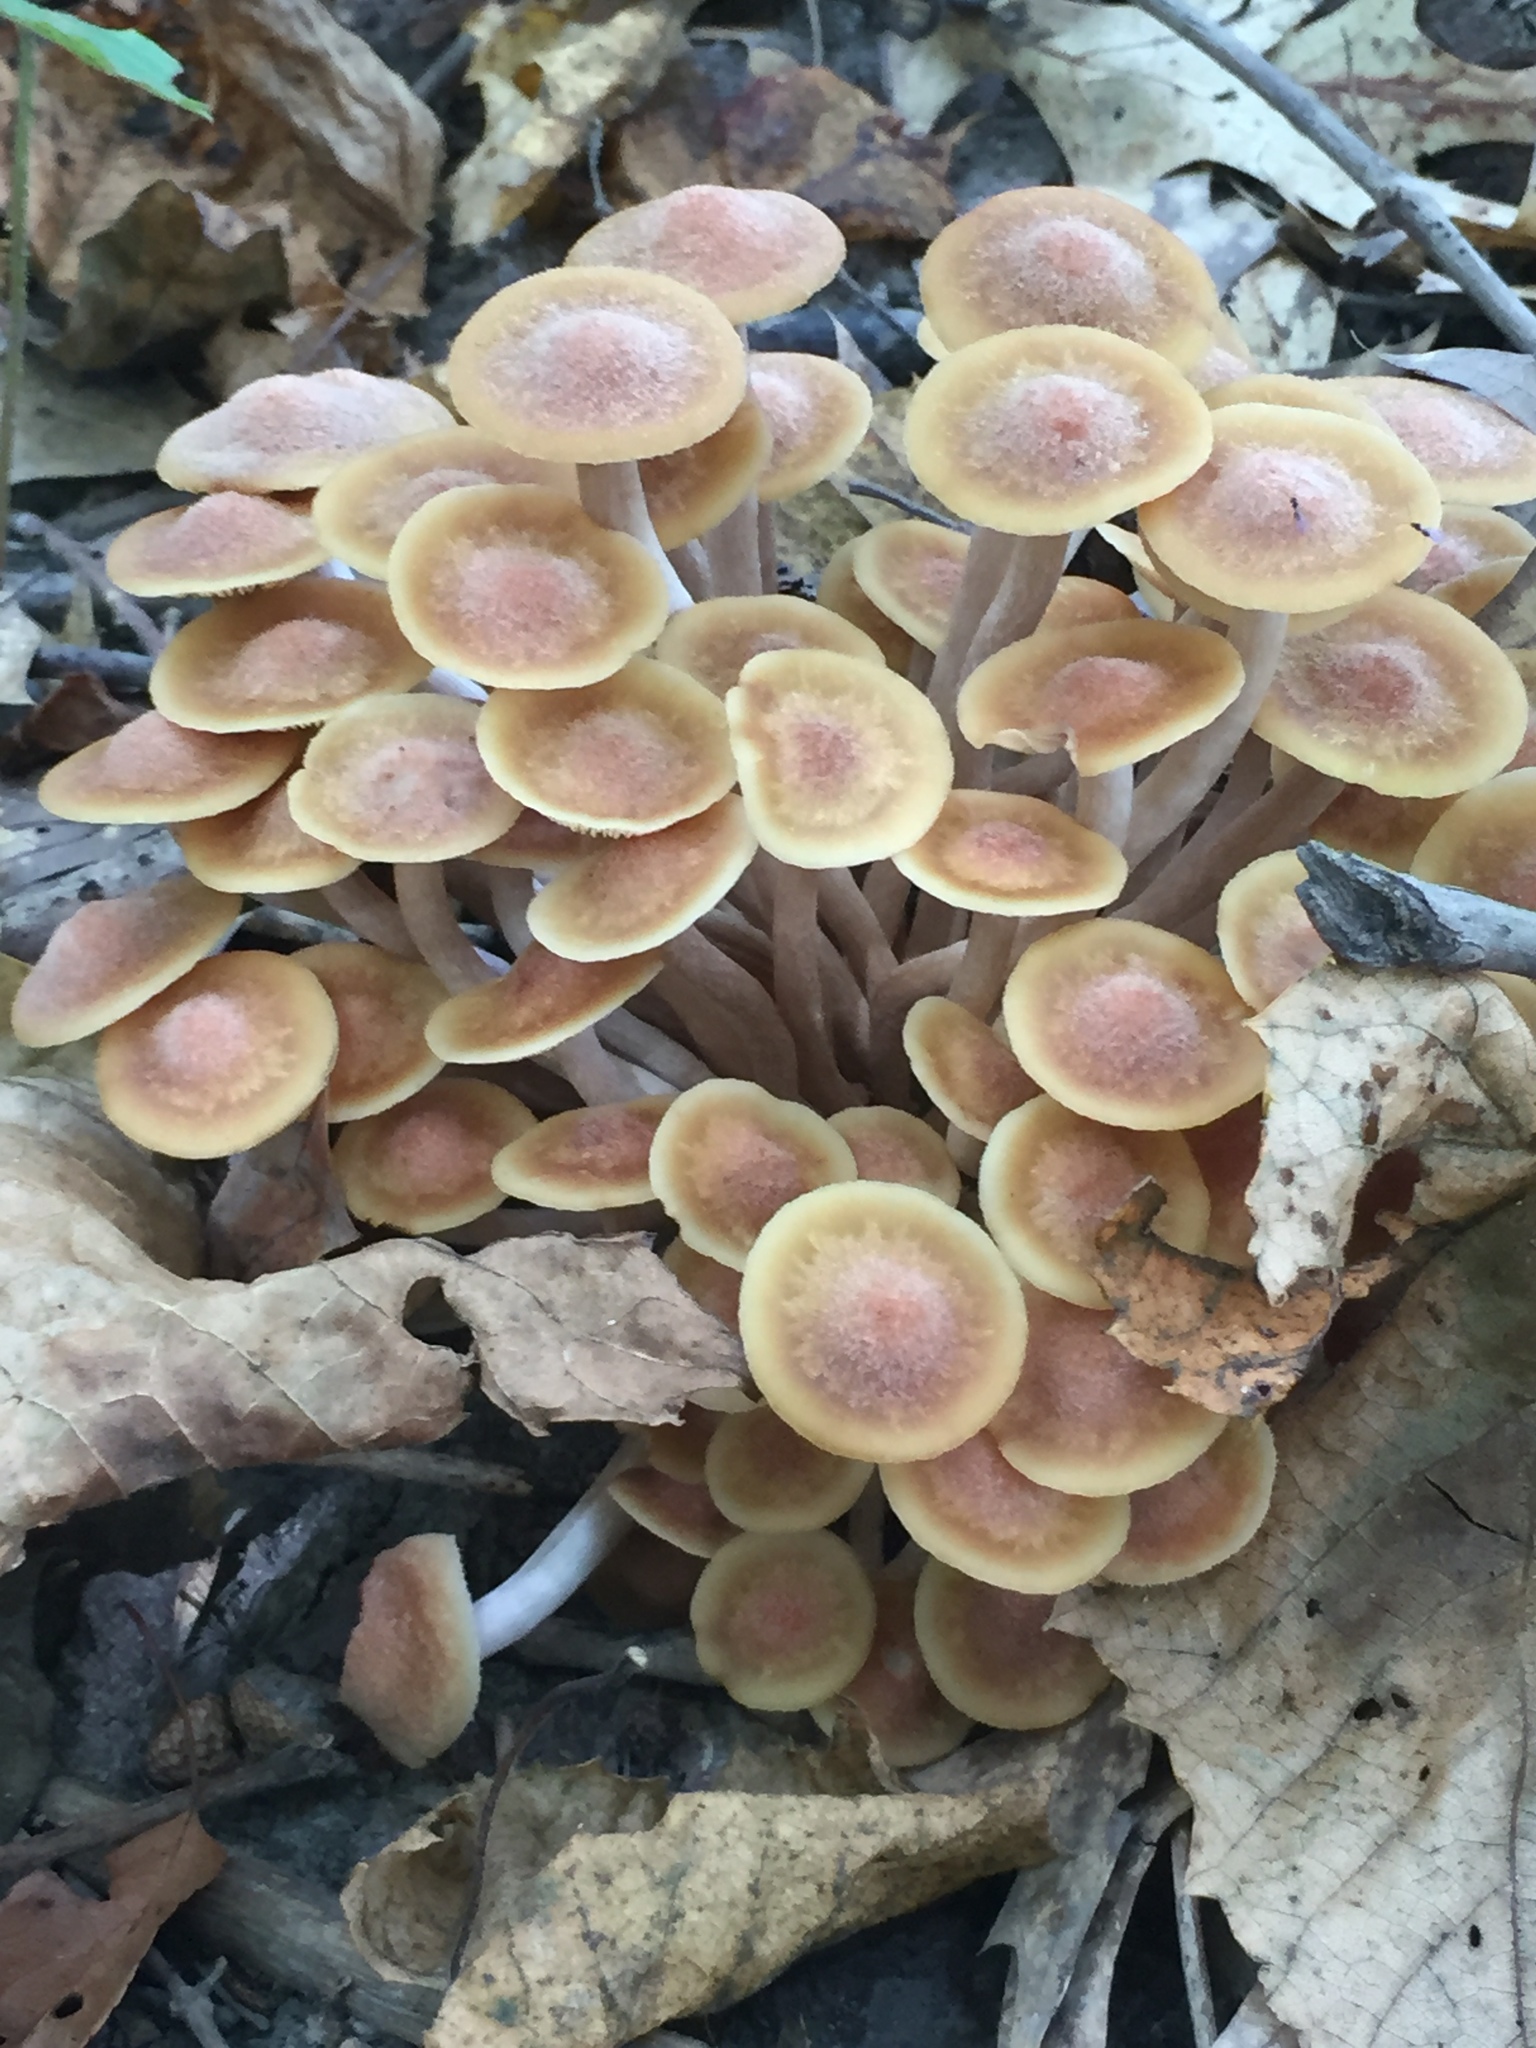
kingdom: Fungi
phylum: Basidiomycota
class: Agaricomycetes
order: Agaricales
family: Physalacriaceae
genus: Desarmillaria
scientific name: Desarmillaria caespitosa
